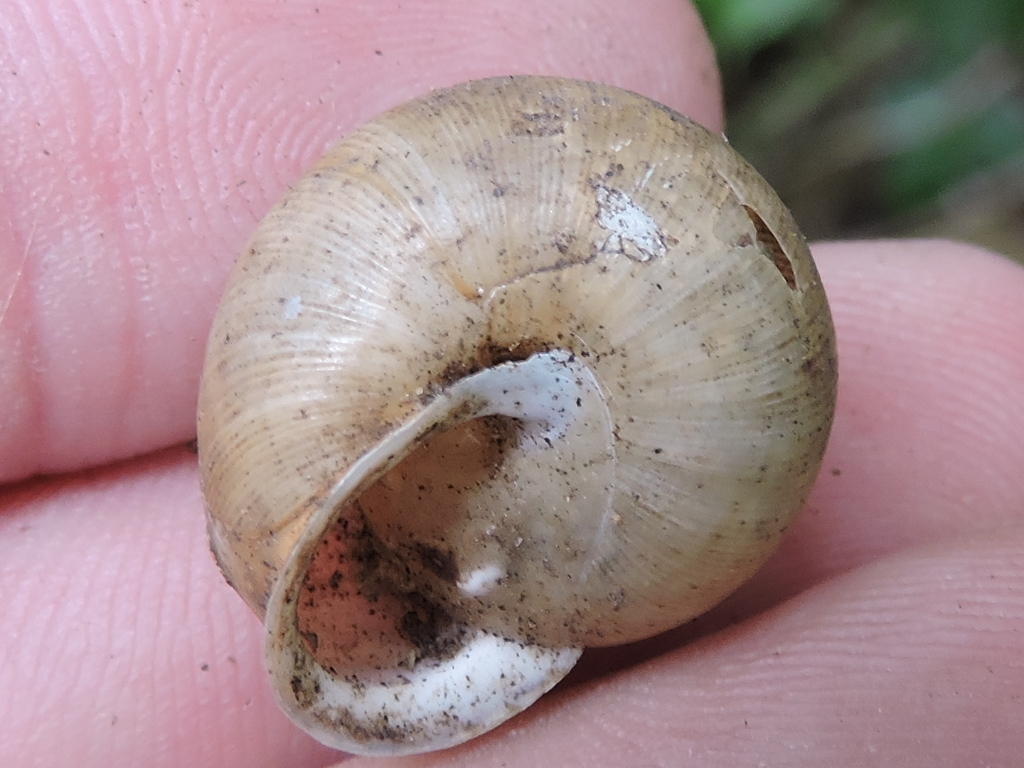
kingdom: Animalia
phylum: Mollusca
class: Gastropoda
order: Stylommatophora
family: Polygyridae
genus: Patera
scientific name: Patera roemeri
